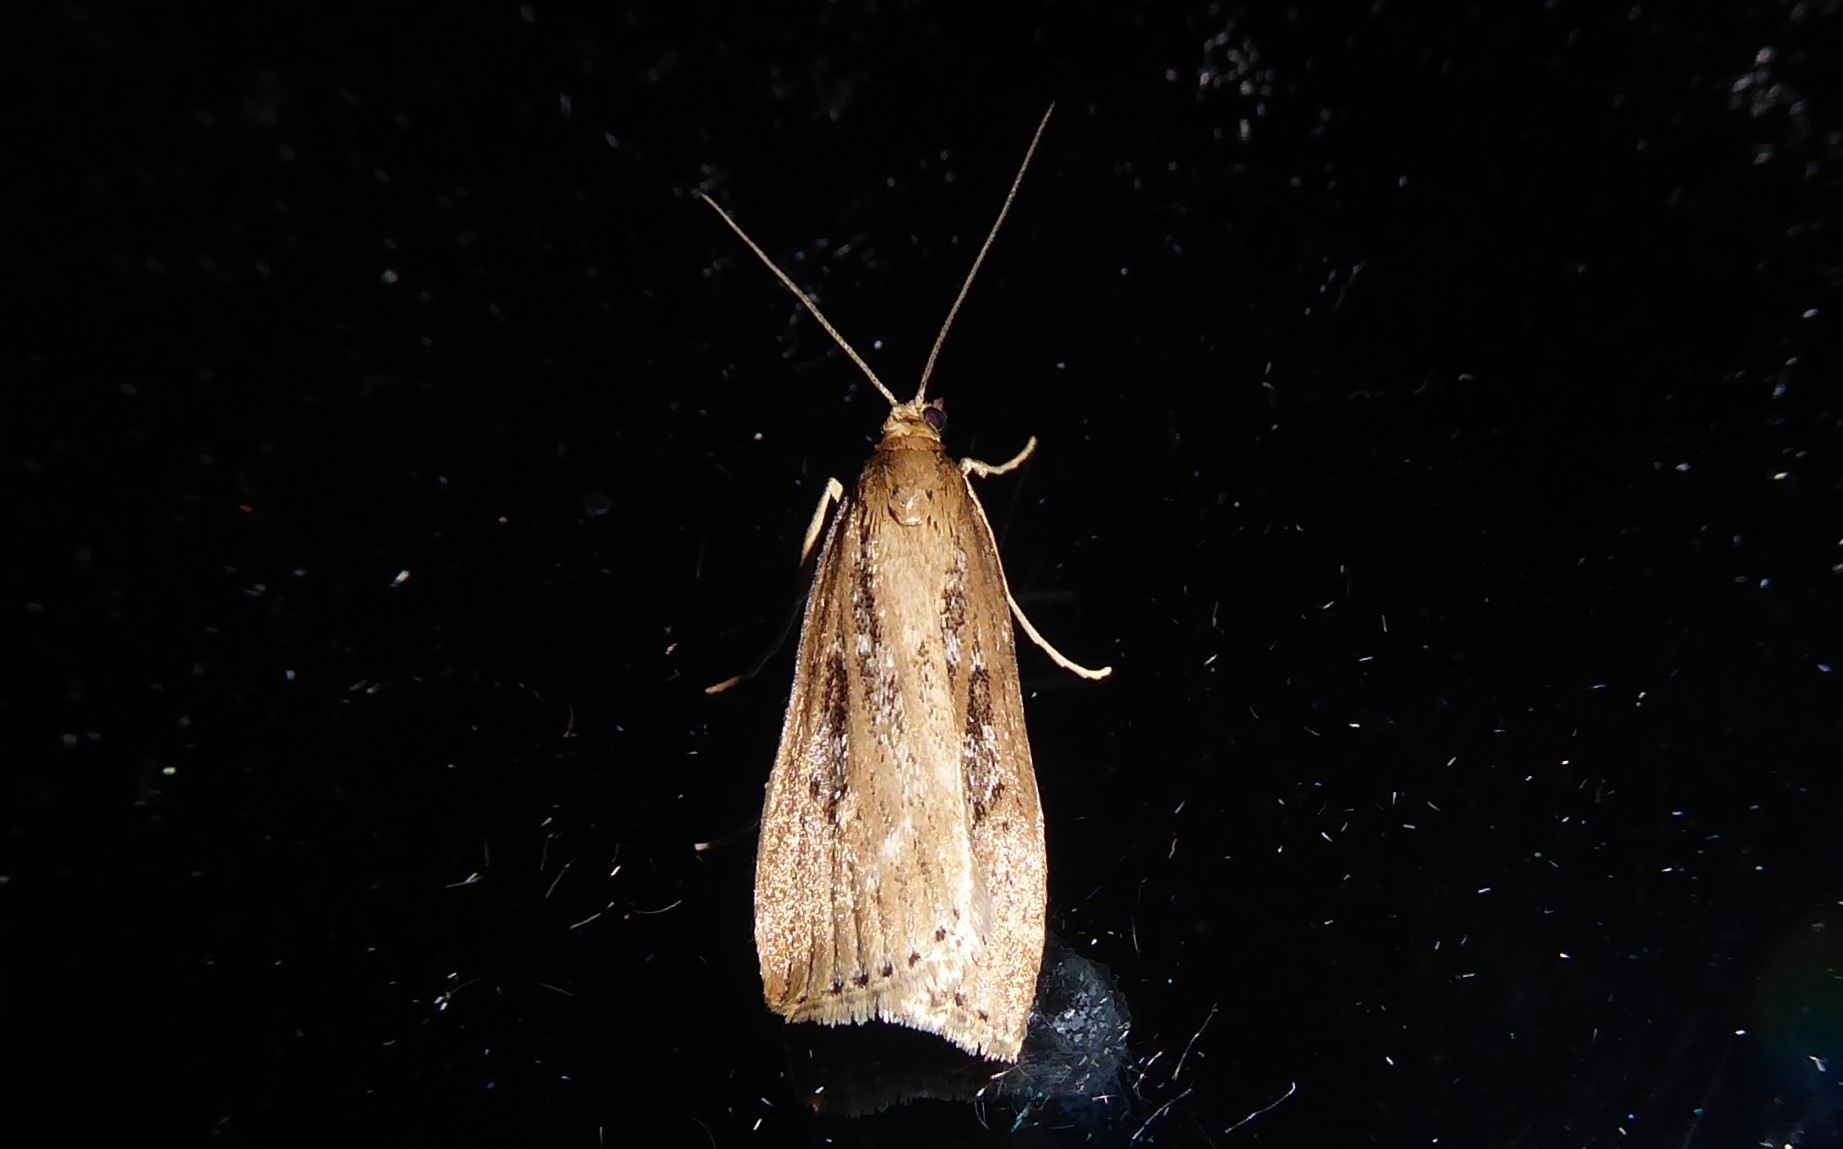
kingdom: Animalia
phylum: Arthropoda
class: Insecta
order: Lepidoptera
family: Crambidae
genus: Eudonia
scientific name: Eudonia octophora
